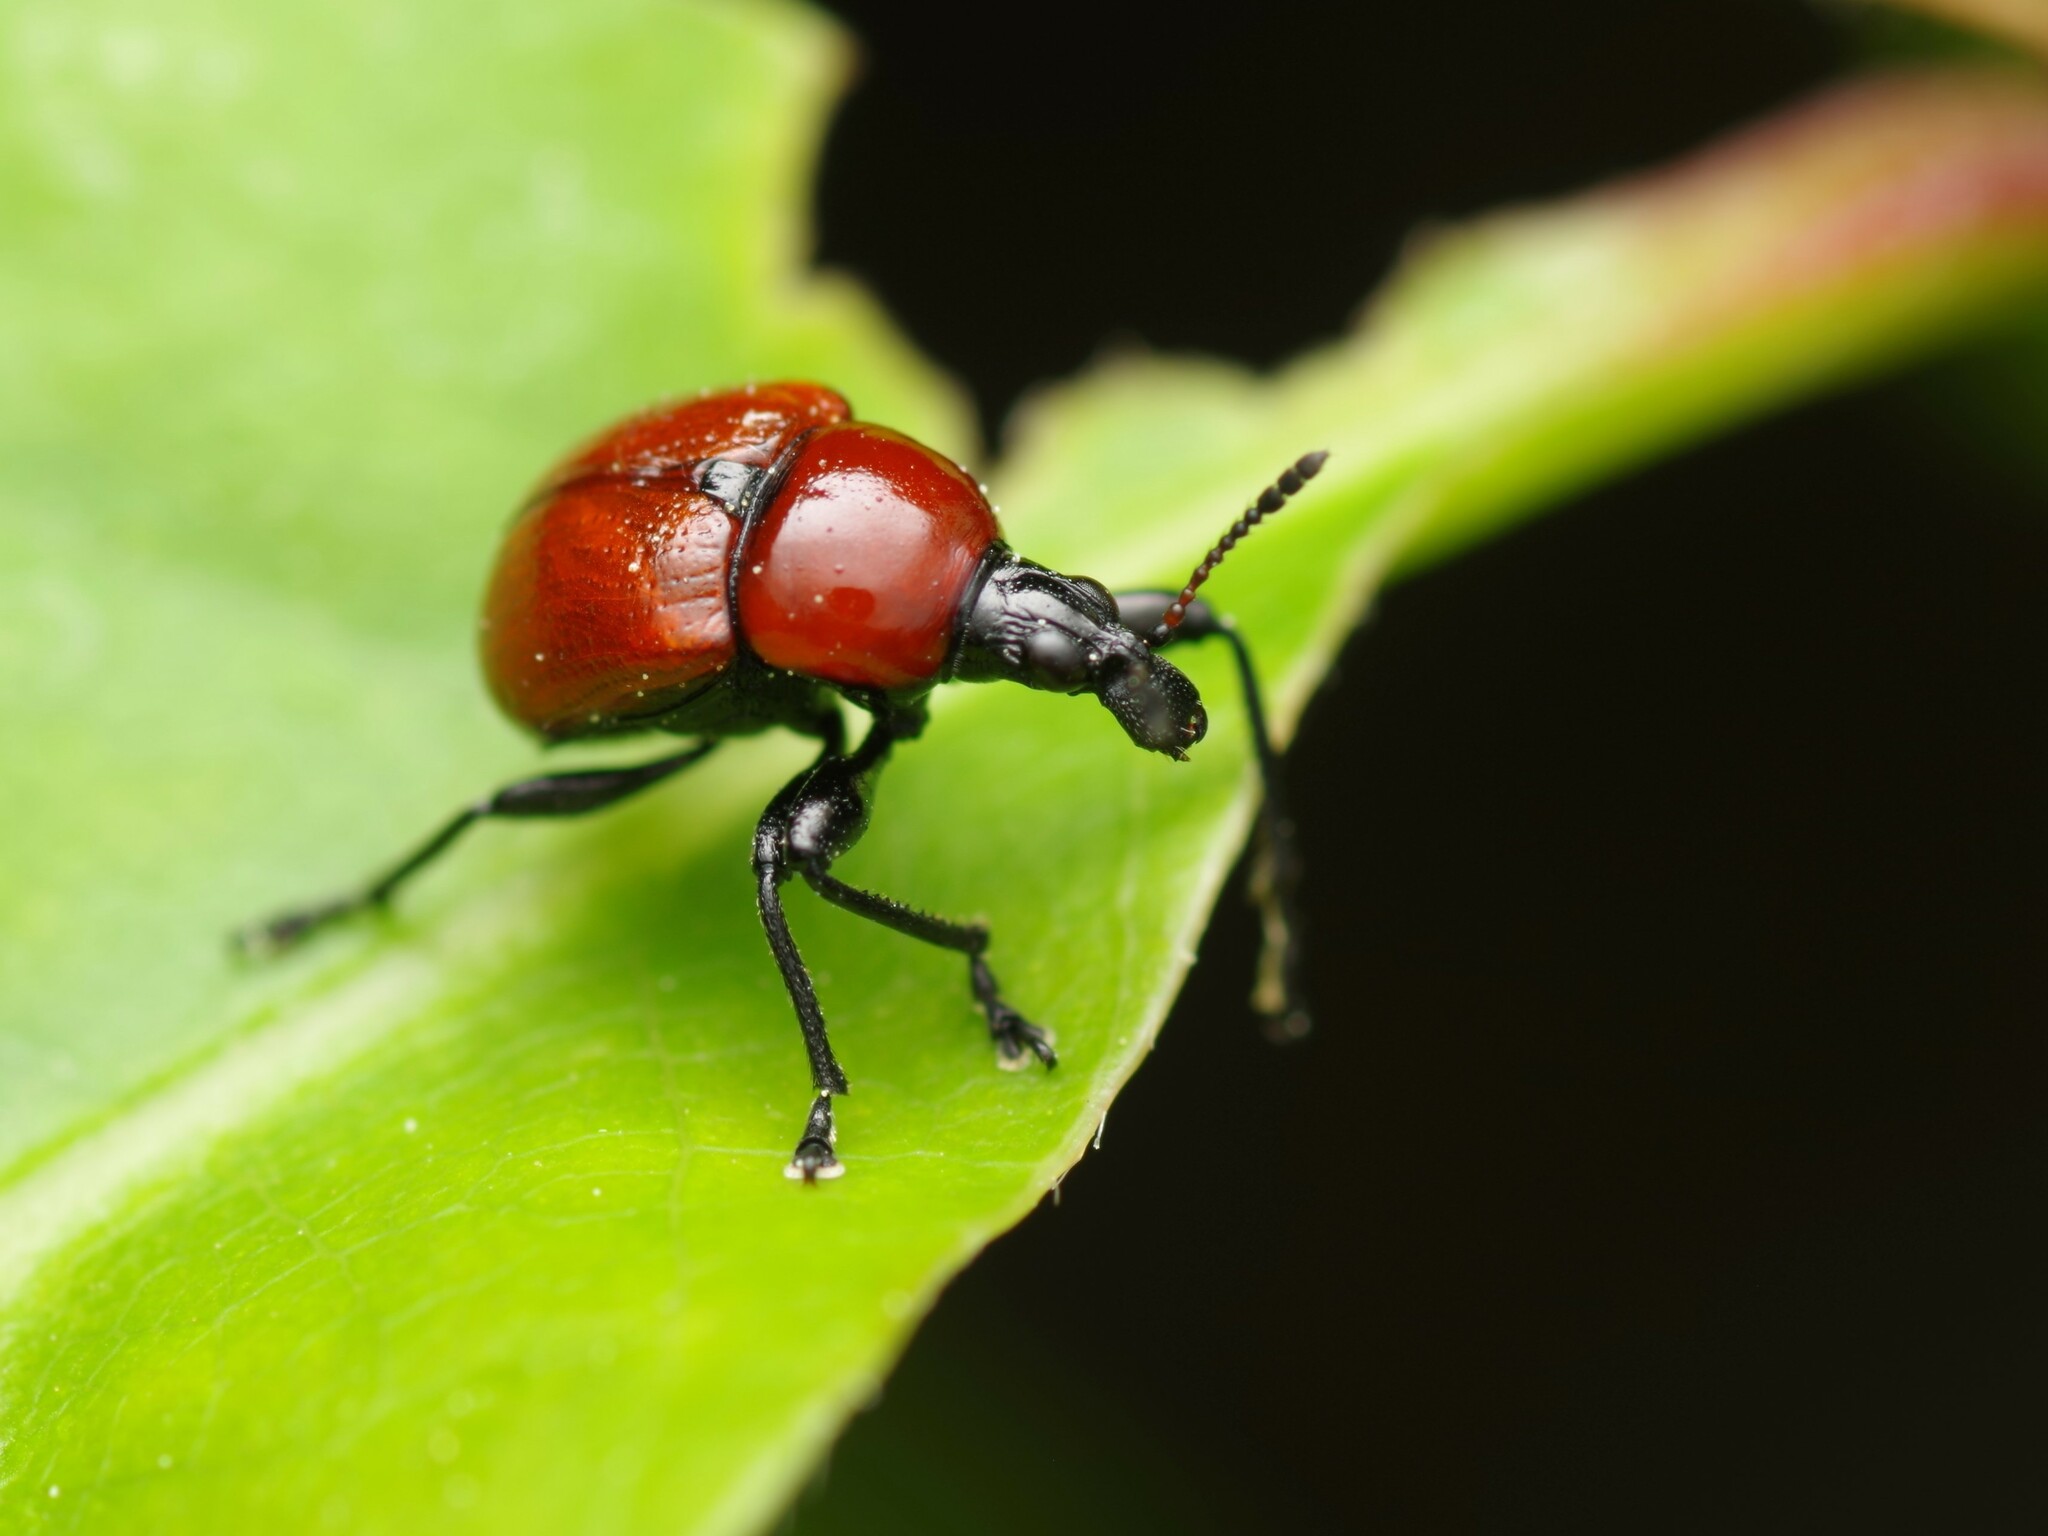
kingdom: Animalia
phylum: Arthropoda
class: Insecta
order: Coleoptera
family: Attelabidae
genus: Attelabus
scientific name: Attelabus nitens
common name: Oak leaf-roller
